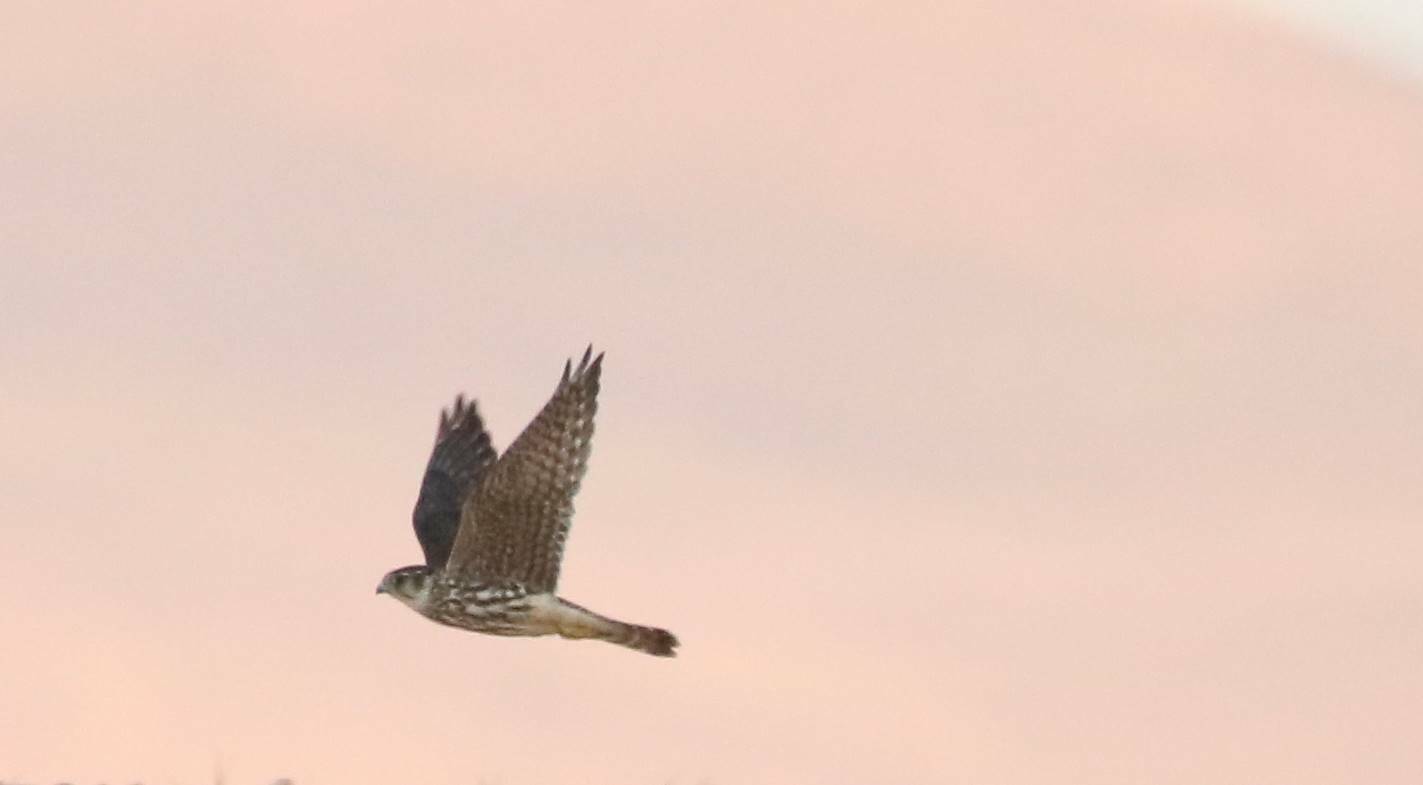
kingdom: Animalia
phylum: Chordata
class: Aves
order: Falconiformes
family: Falconidae
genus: Falco
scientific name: Falco columbarius
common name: Merlin
